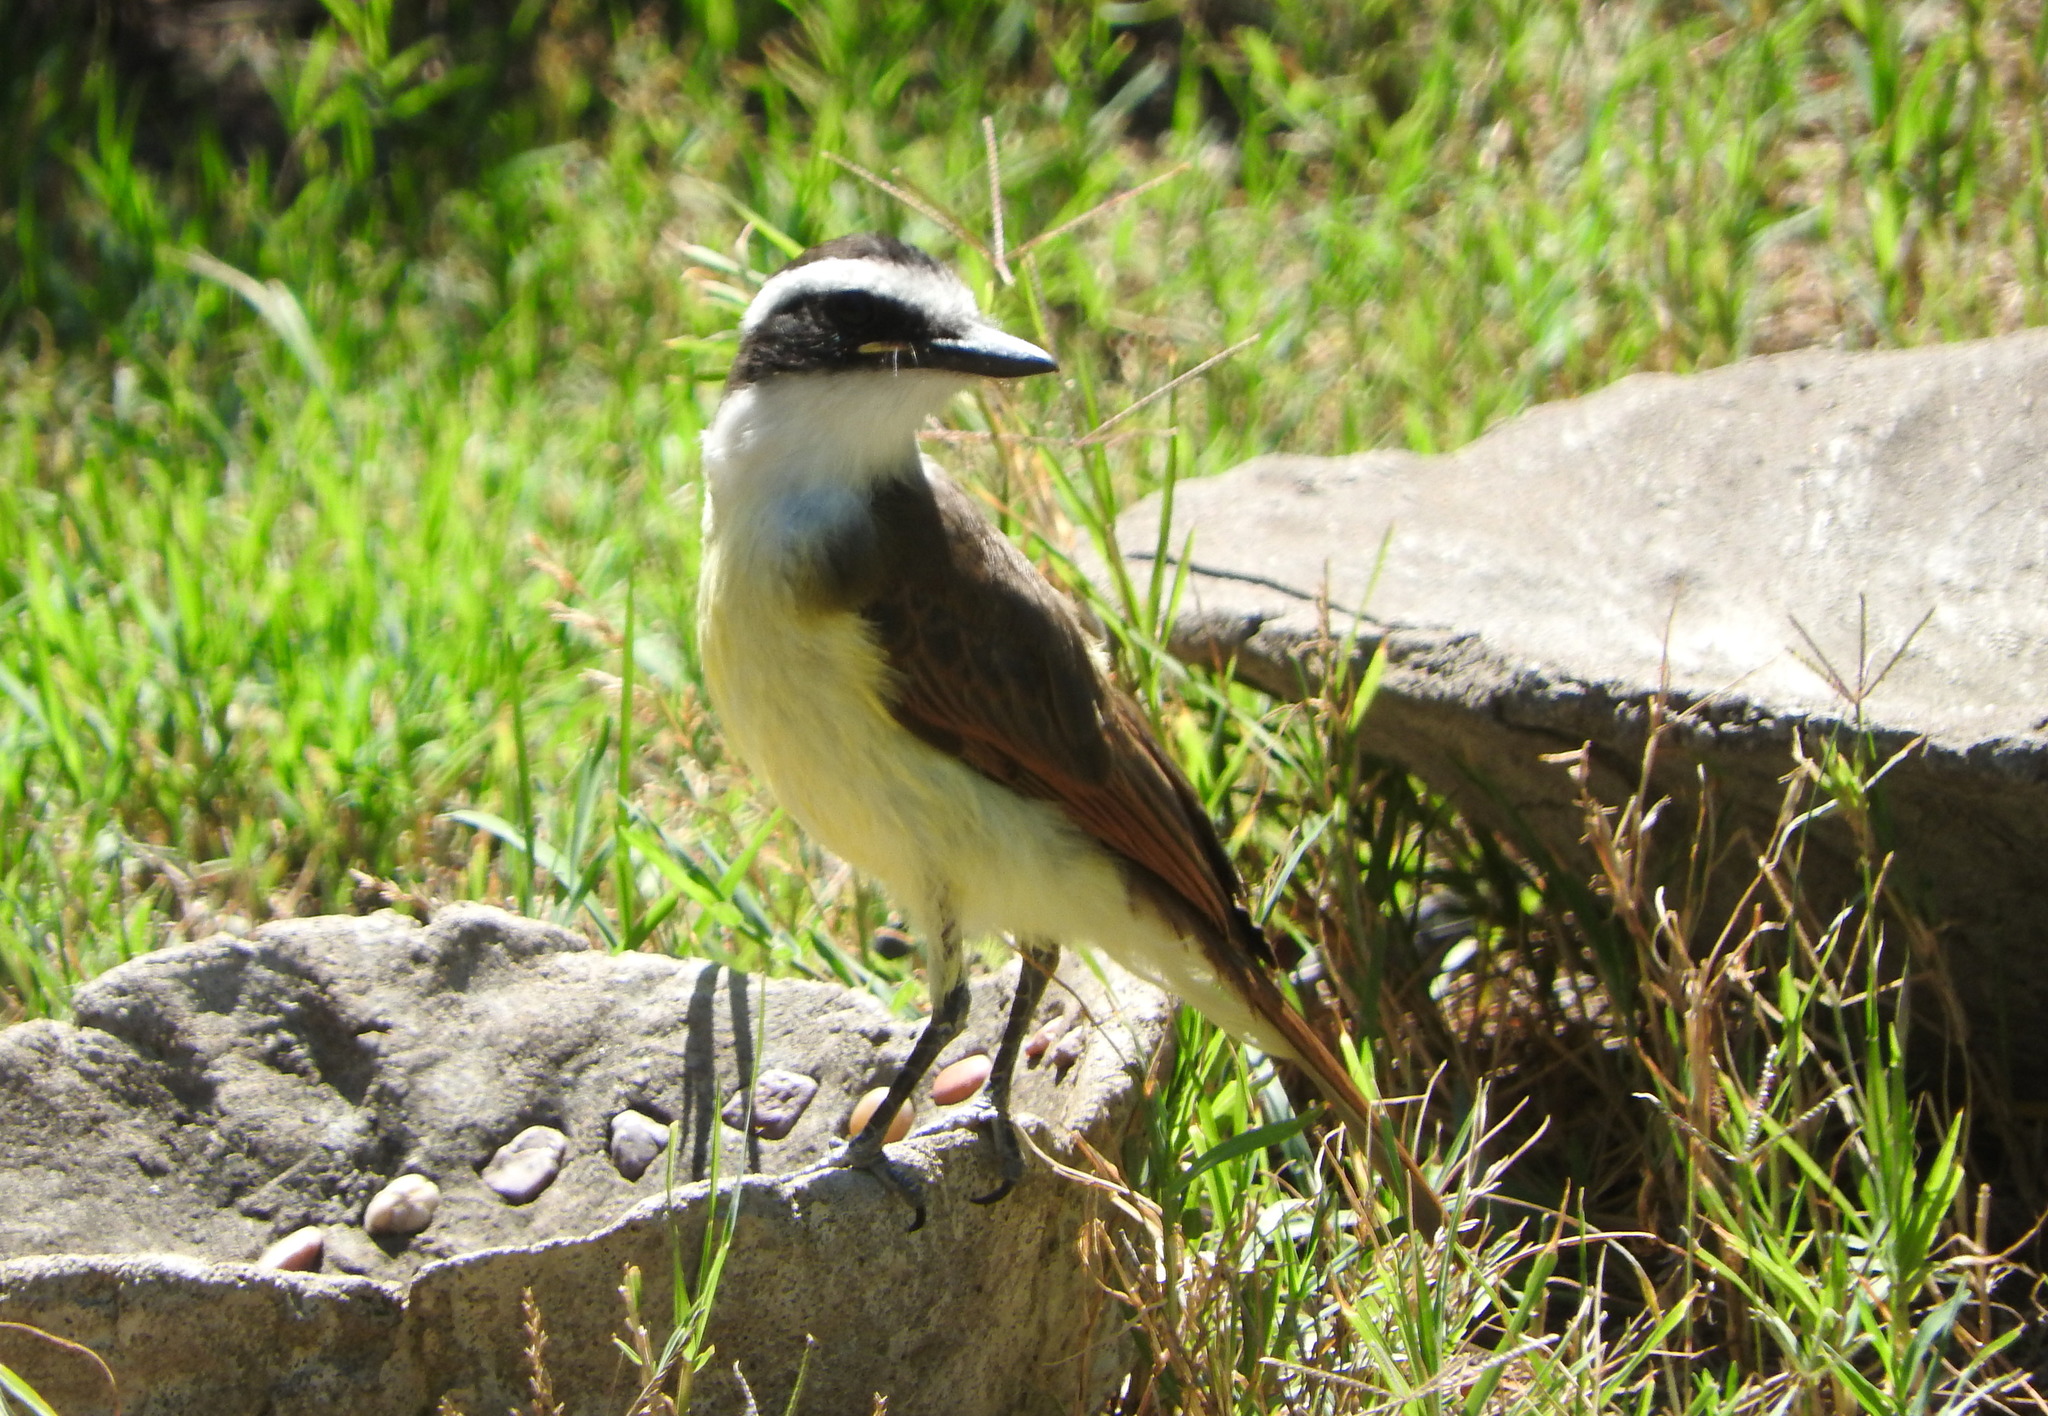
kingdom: Animalia
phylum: Chordata
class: Aves
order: Passeriformes
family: Tyrannidae
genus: Pitangus
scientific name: Pitangus sulphuratus
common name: Great kiskadee
